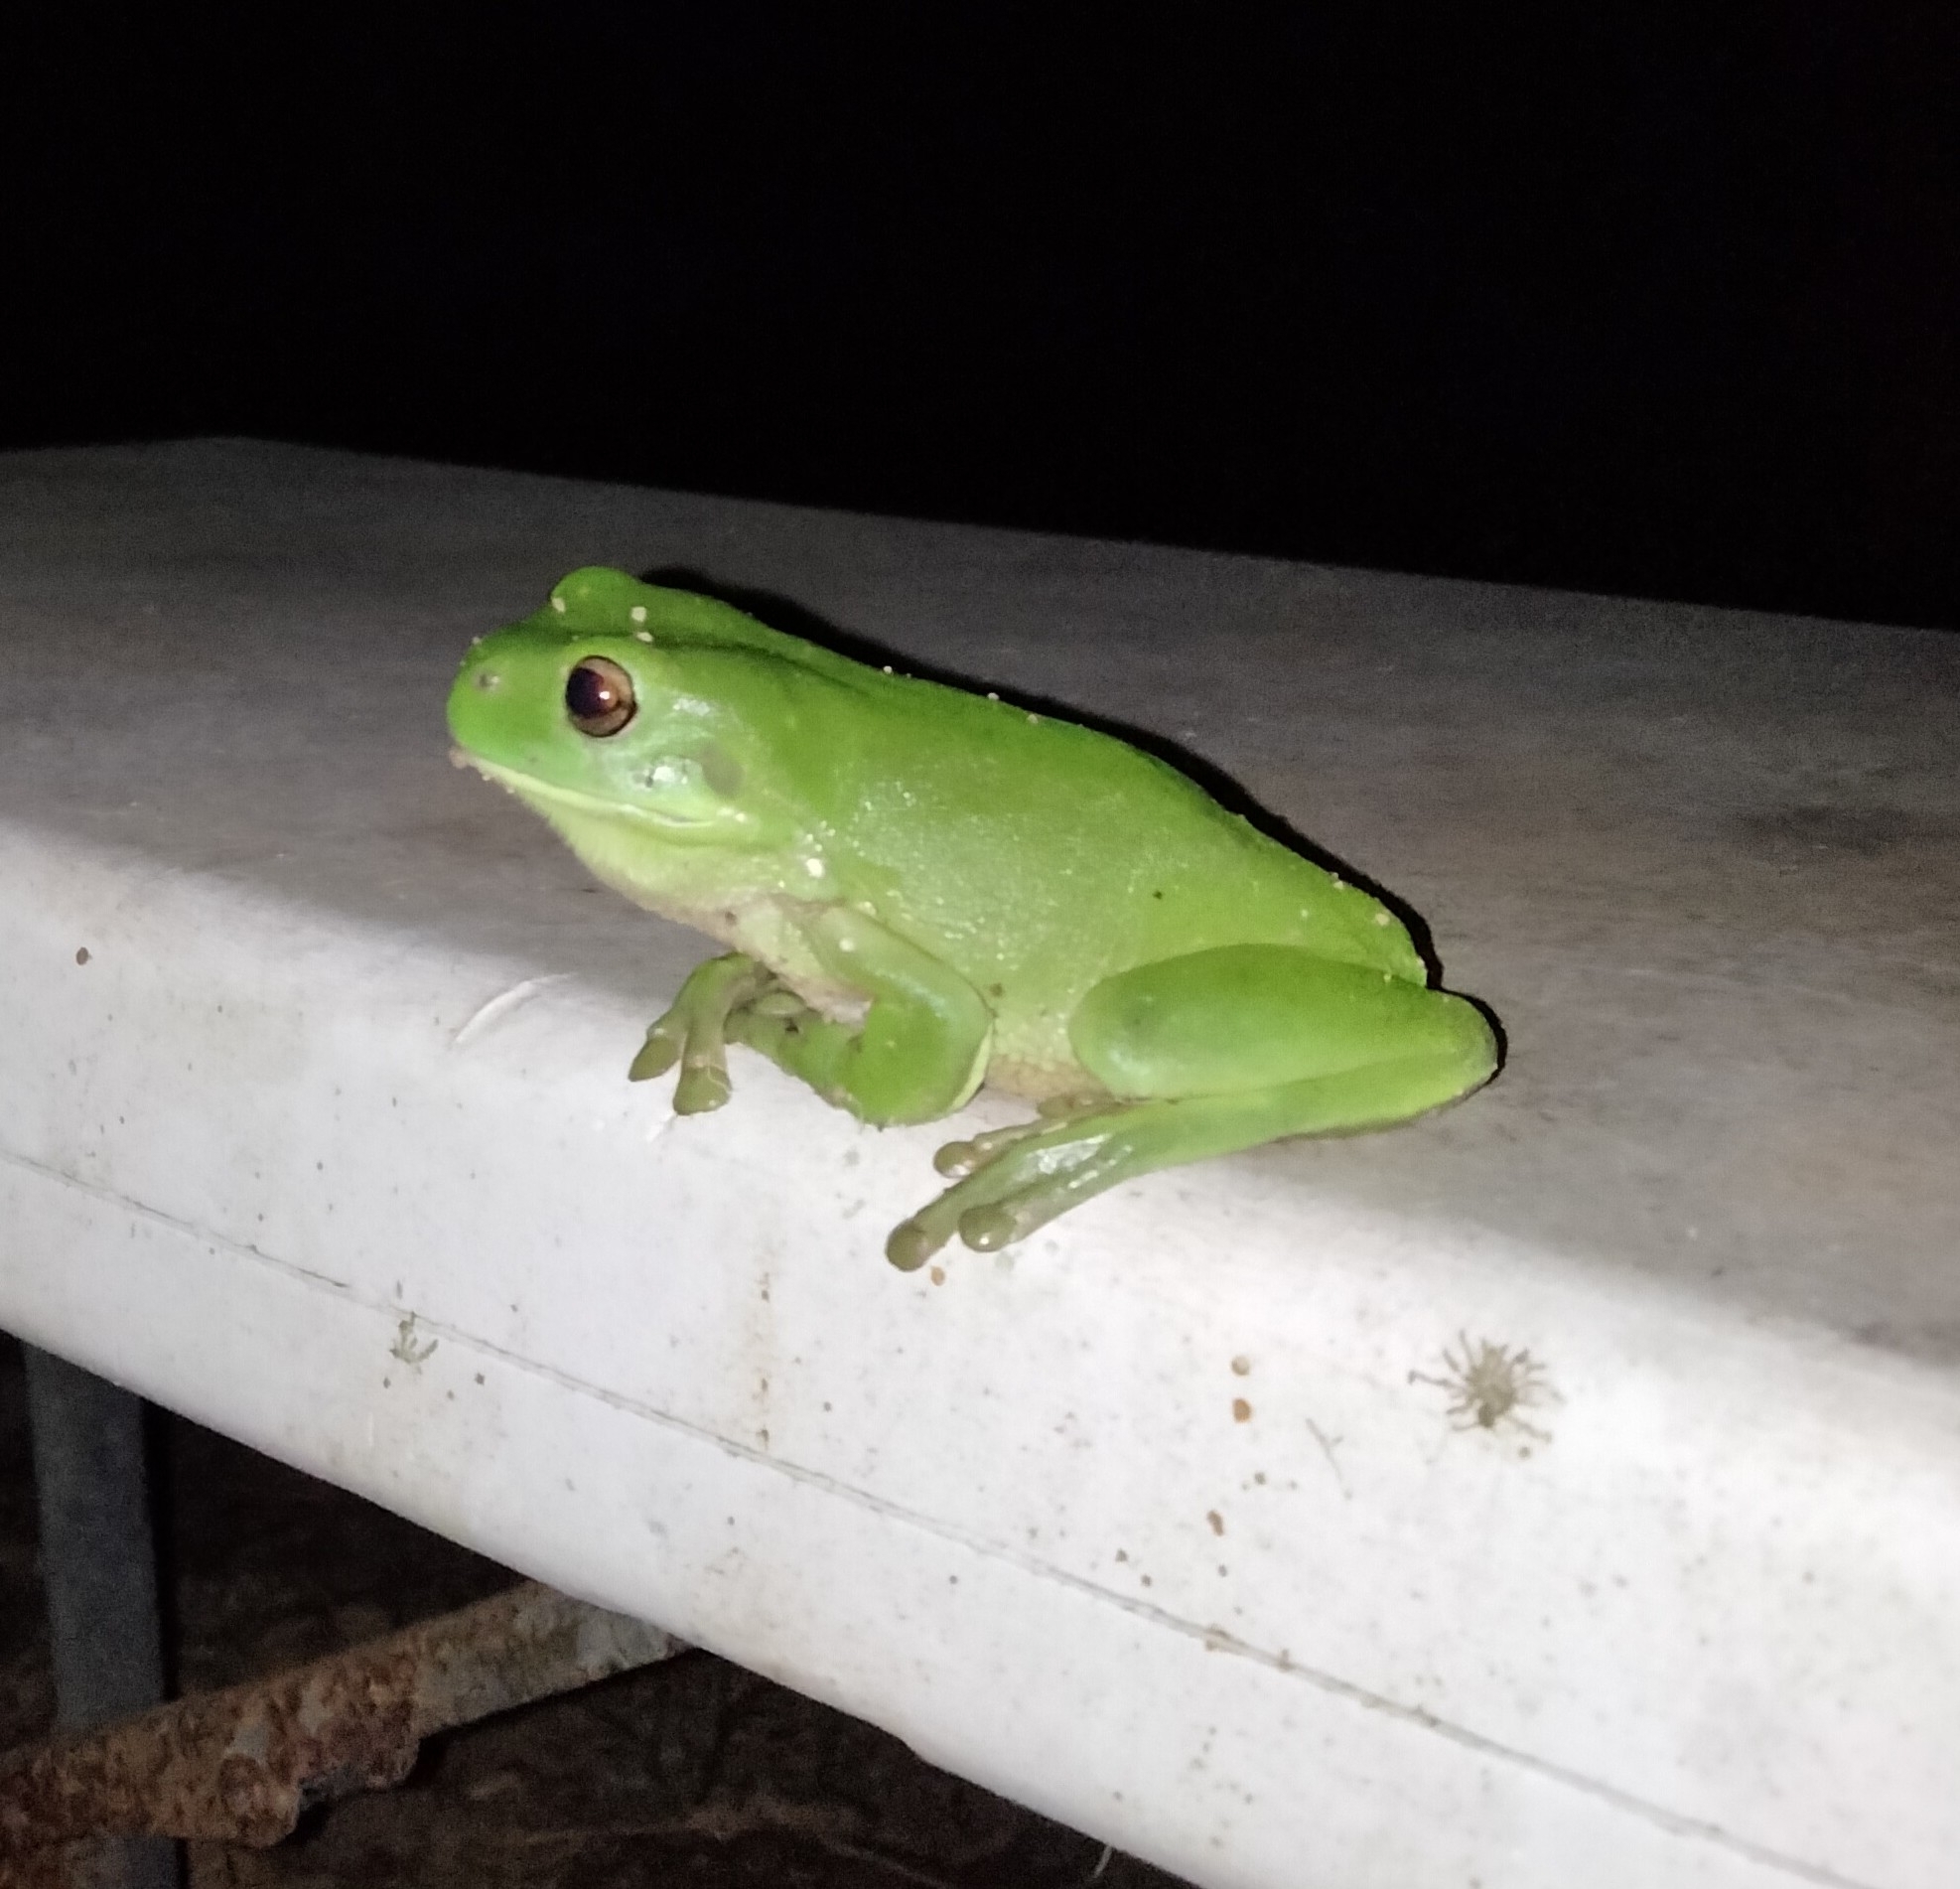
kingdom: Animalia
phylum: Chordata
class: Amphibia
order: Anura
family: Pelodryadidae
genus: Ranoidea
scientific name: Ranoidea caerulea
